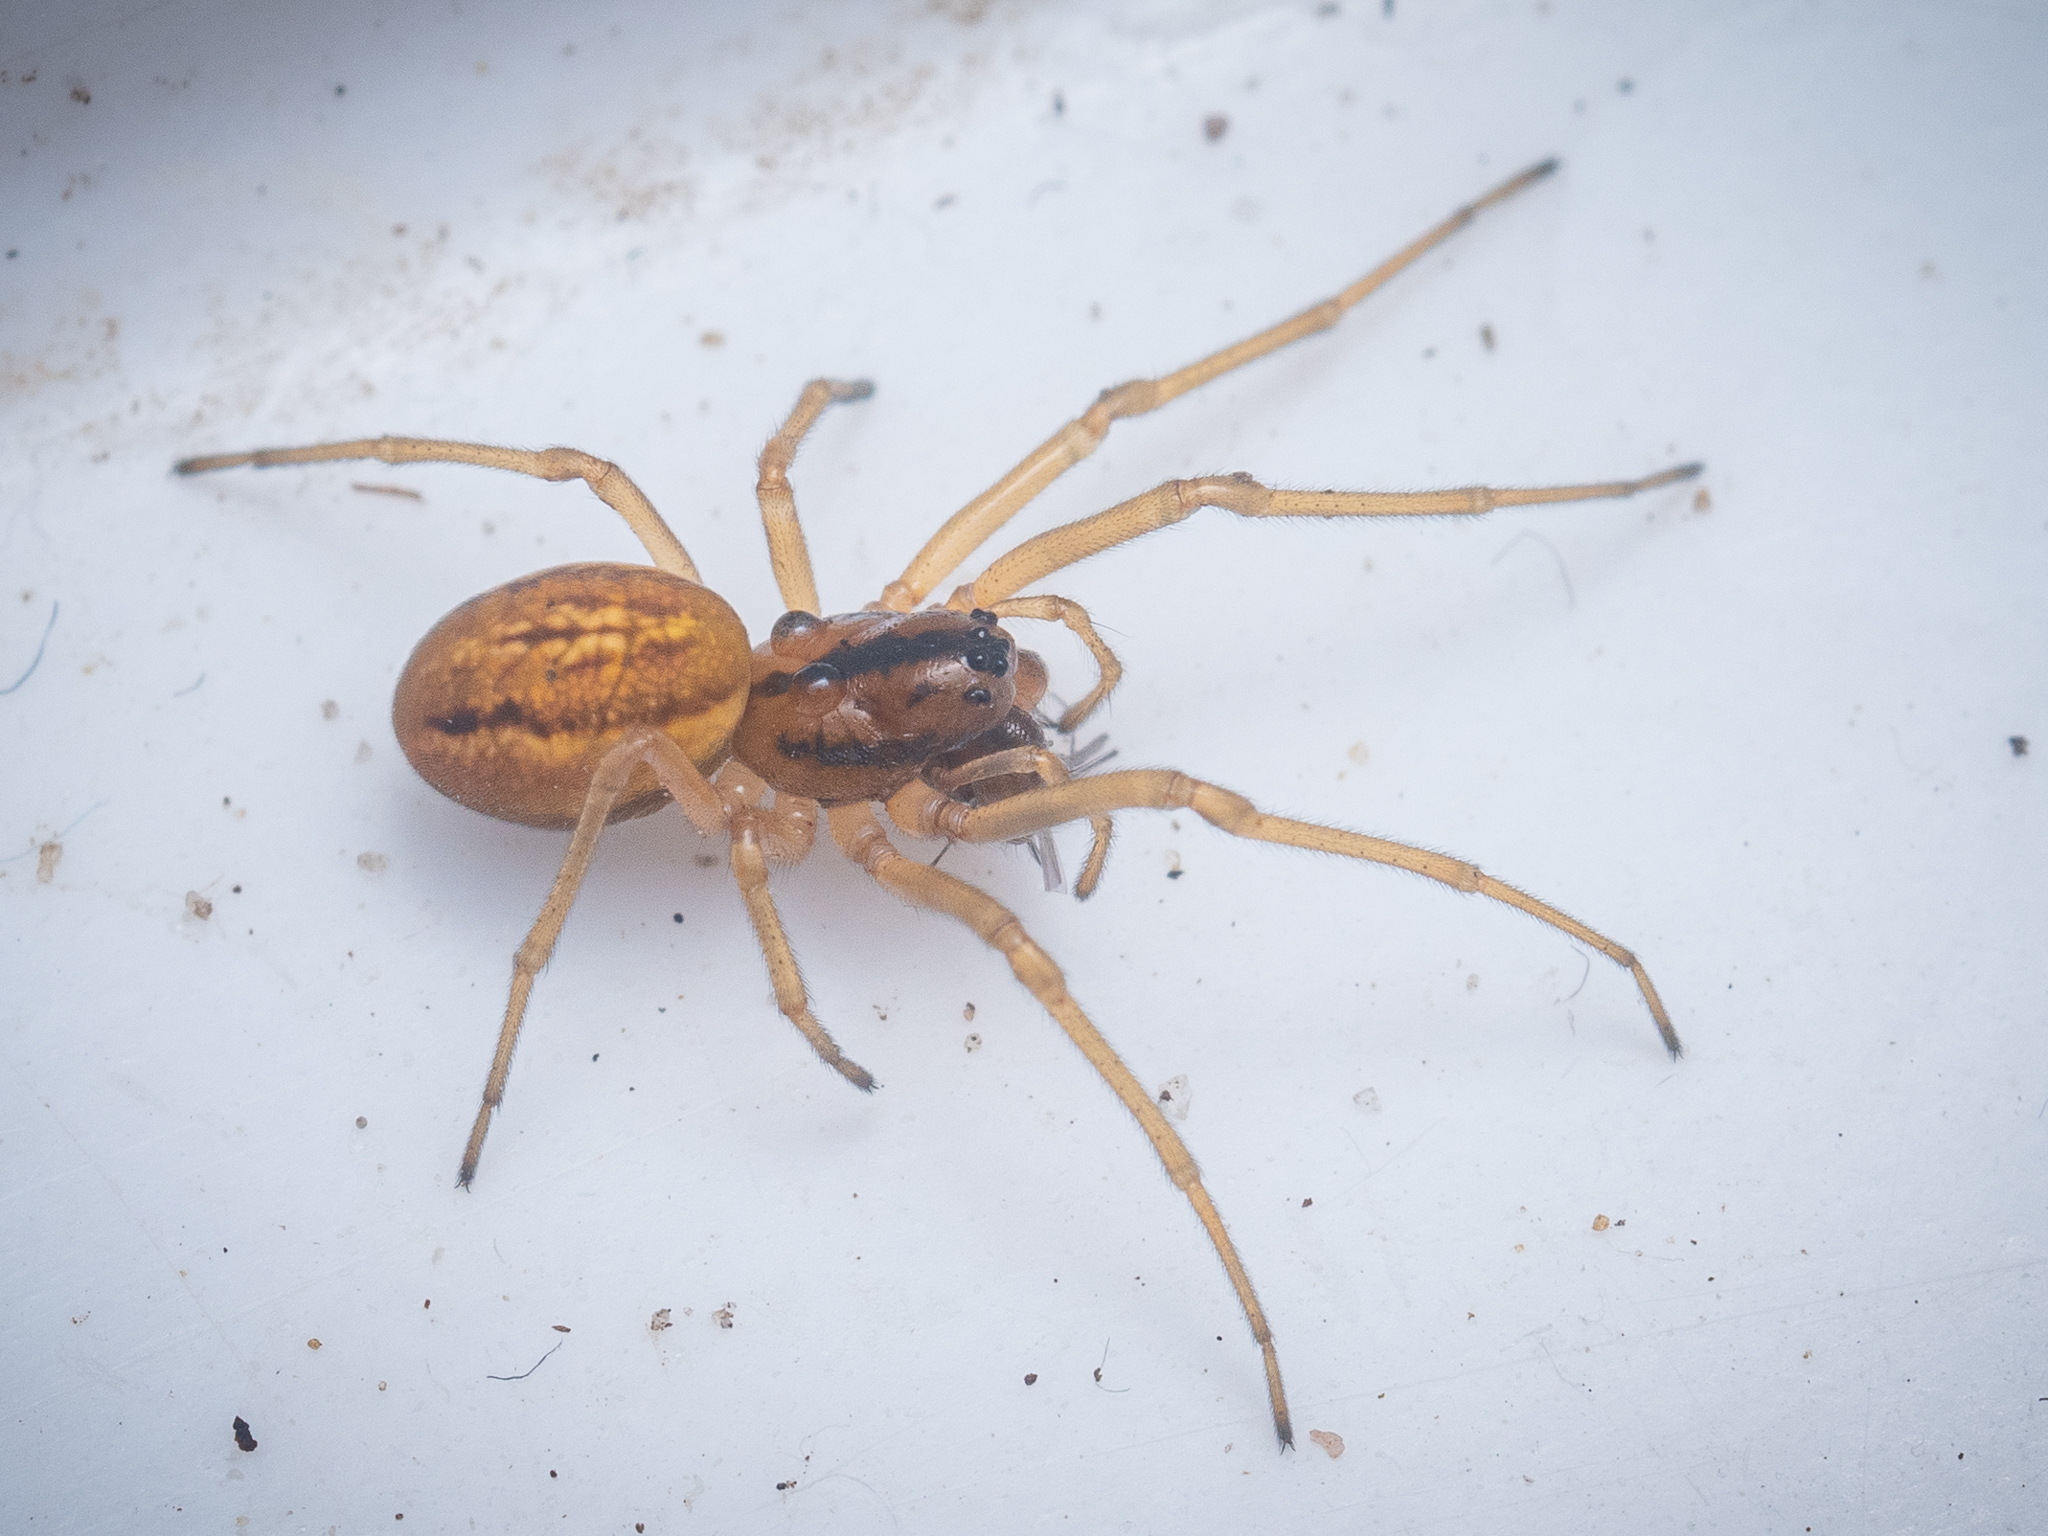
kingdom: Animalia
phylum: Arthropoda
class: Arachnida
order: Araneae
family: Tetragnathidae
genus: Pachygnatha
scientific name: Pachygnatha clercki
